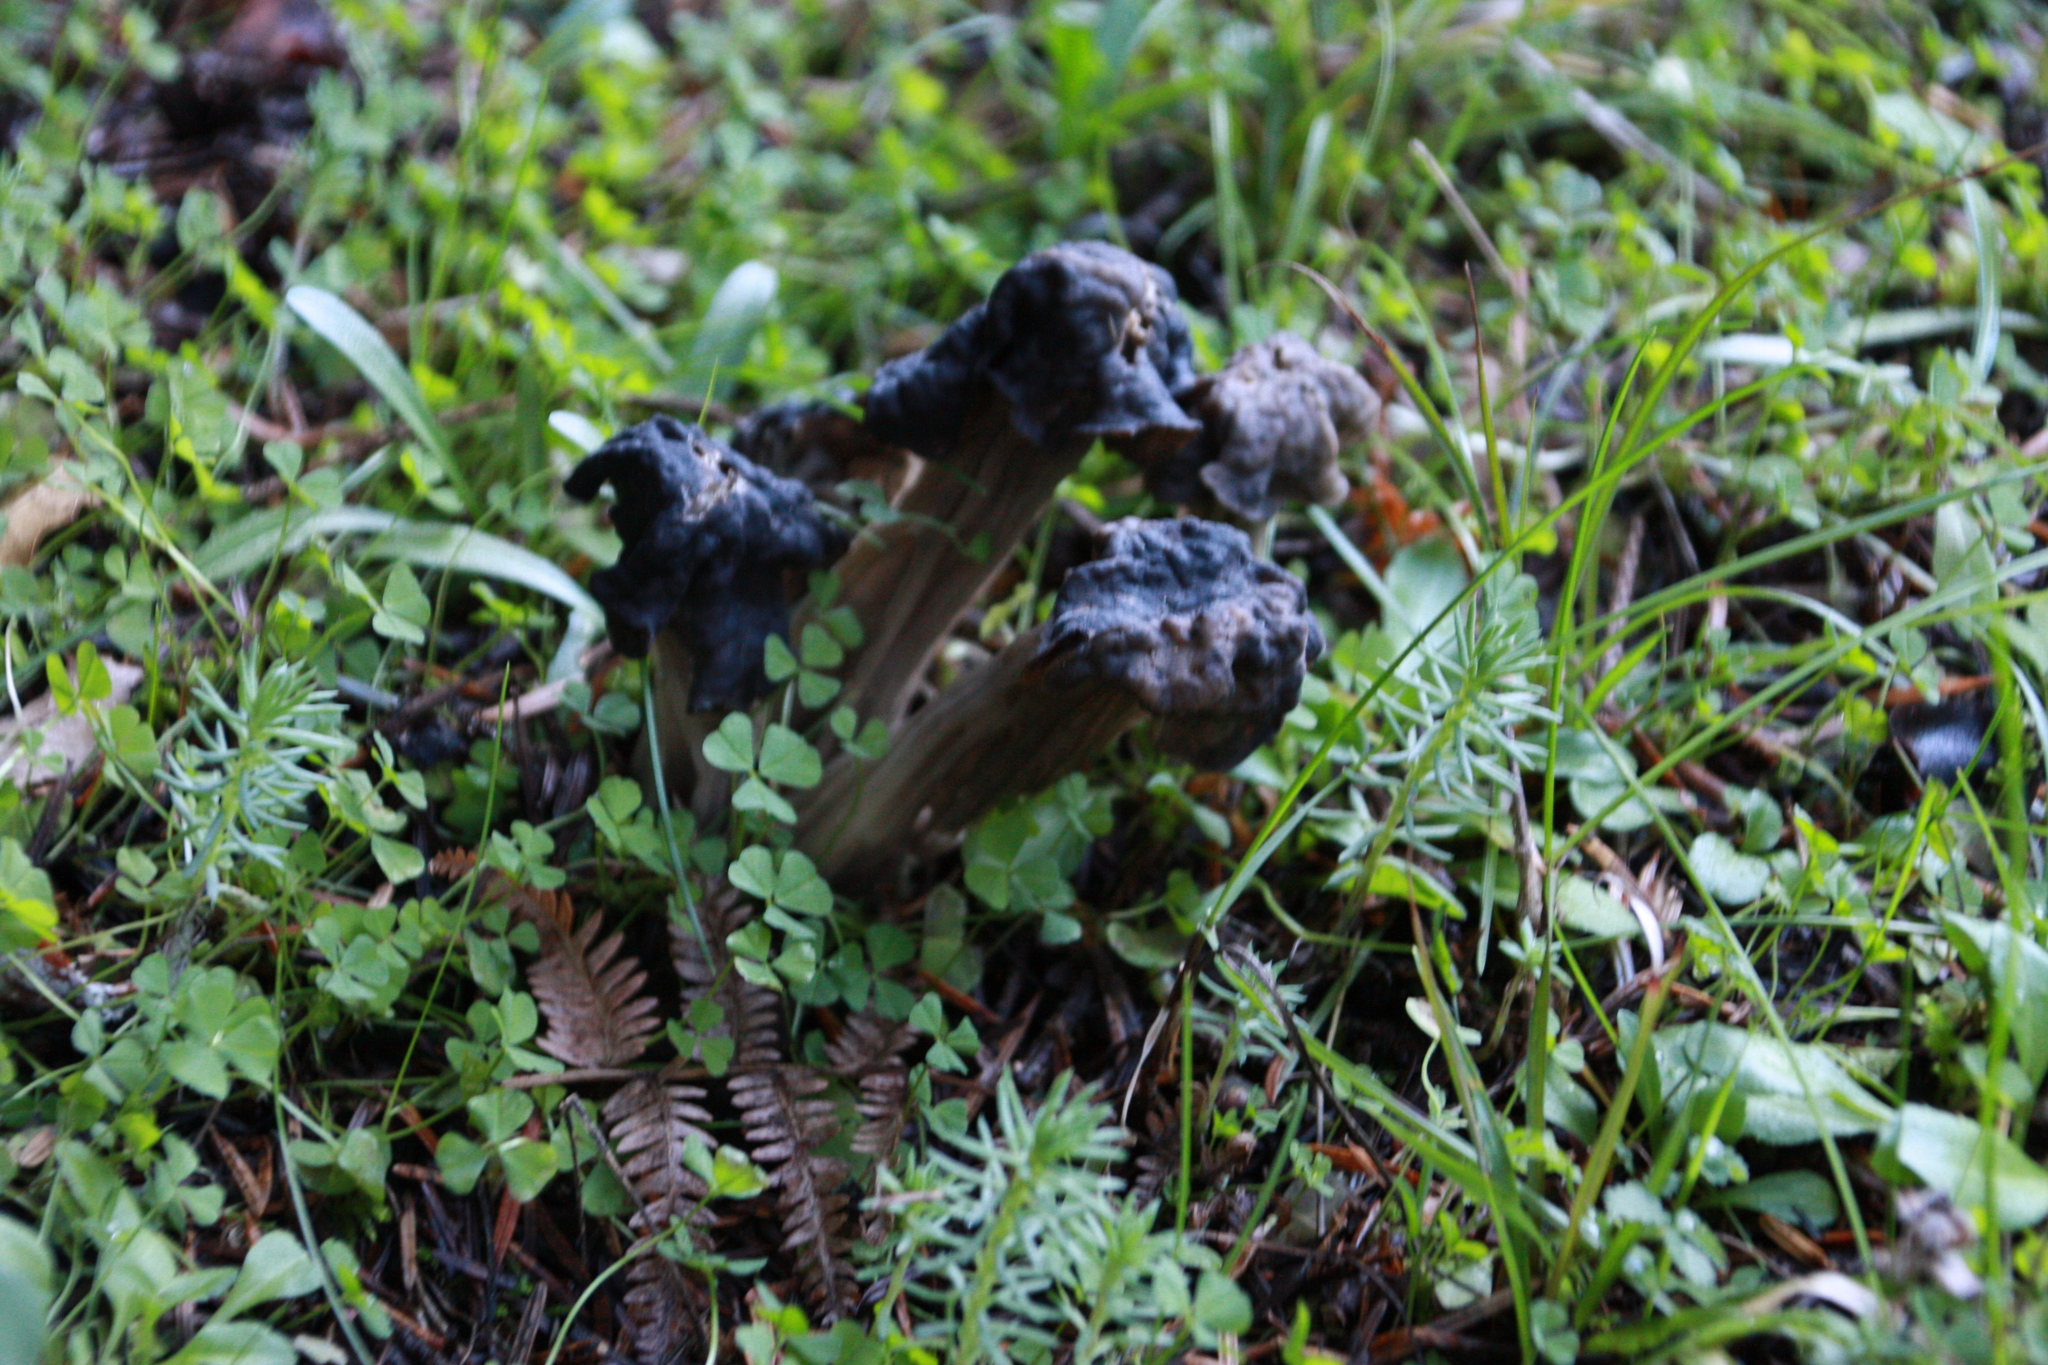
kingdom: Fungi
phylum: Ascomycota
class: Pezizomycetes
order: Pezizales
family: Helvellaceae
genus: Helvella
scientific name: Helvella lacunosa
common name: Elfin saddle
